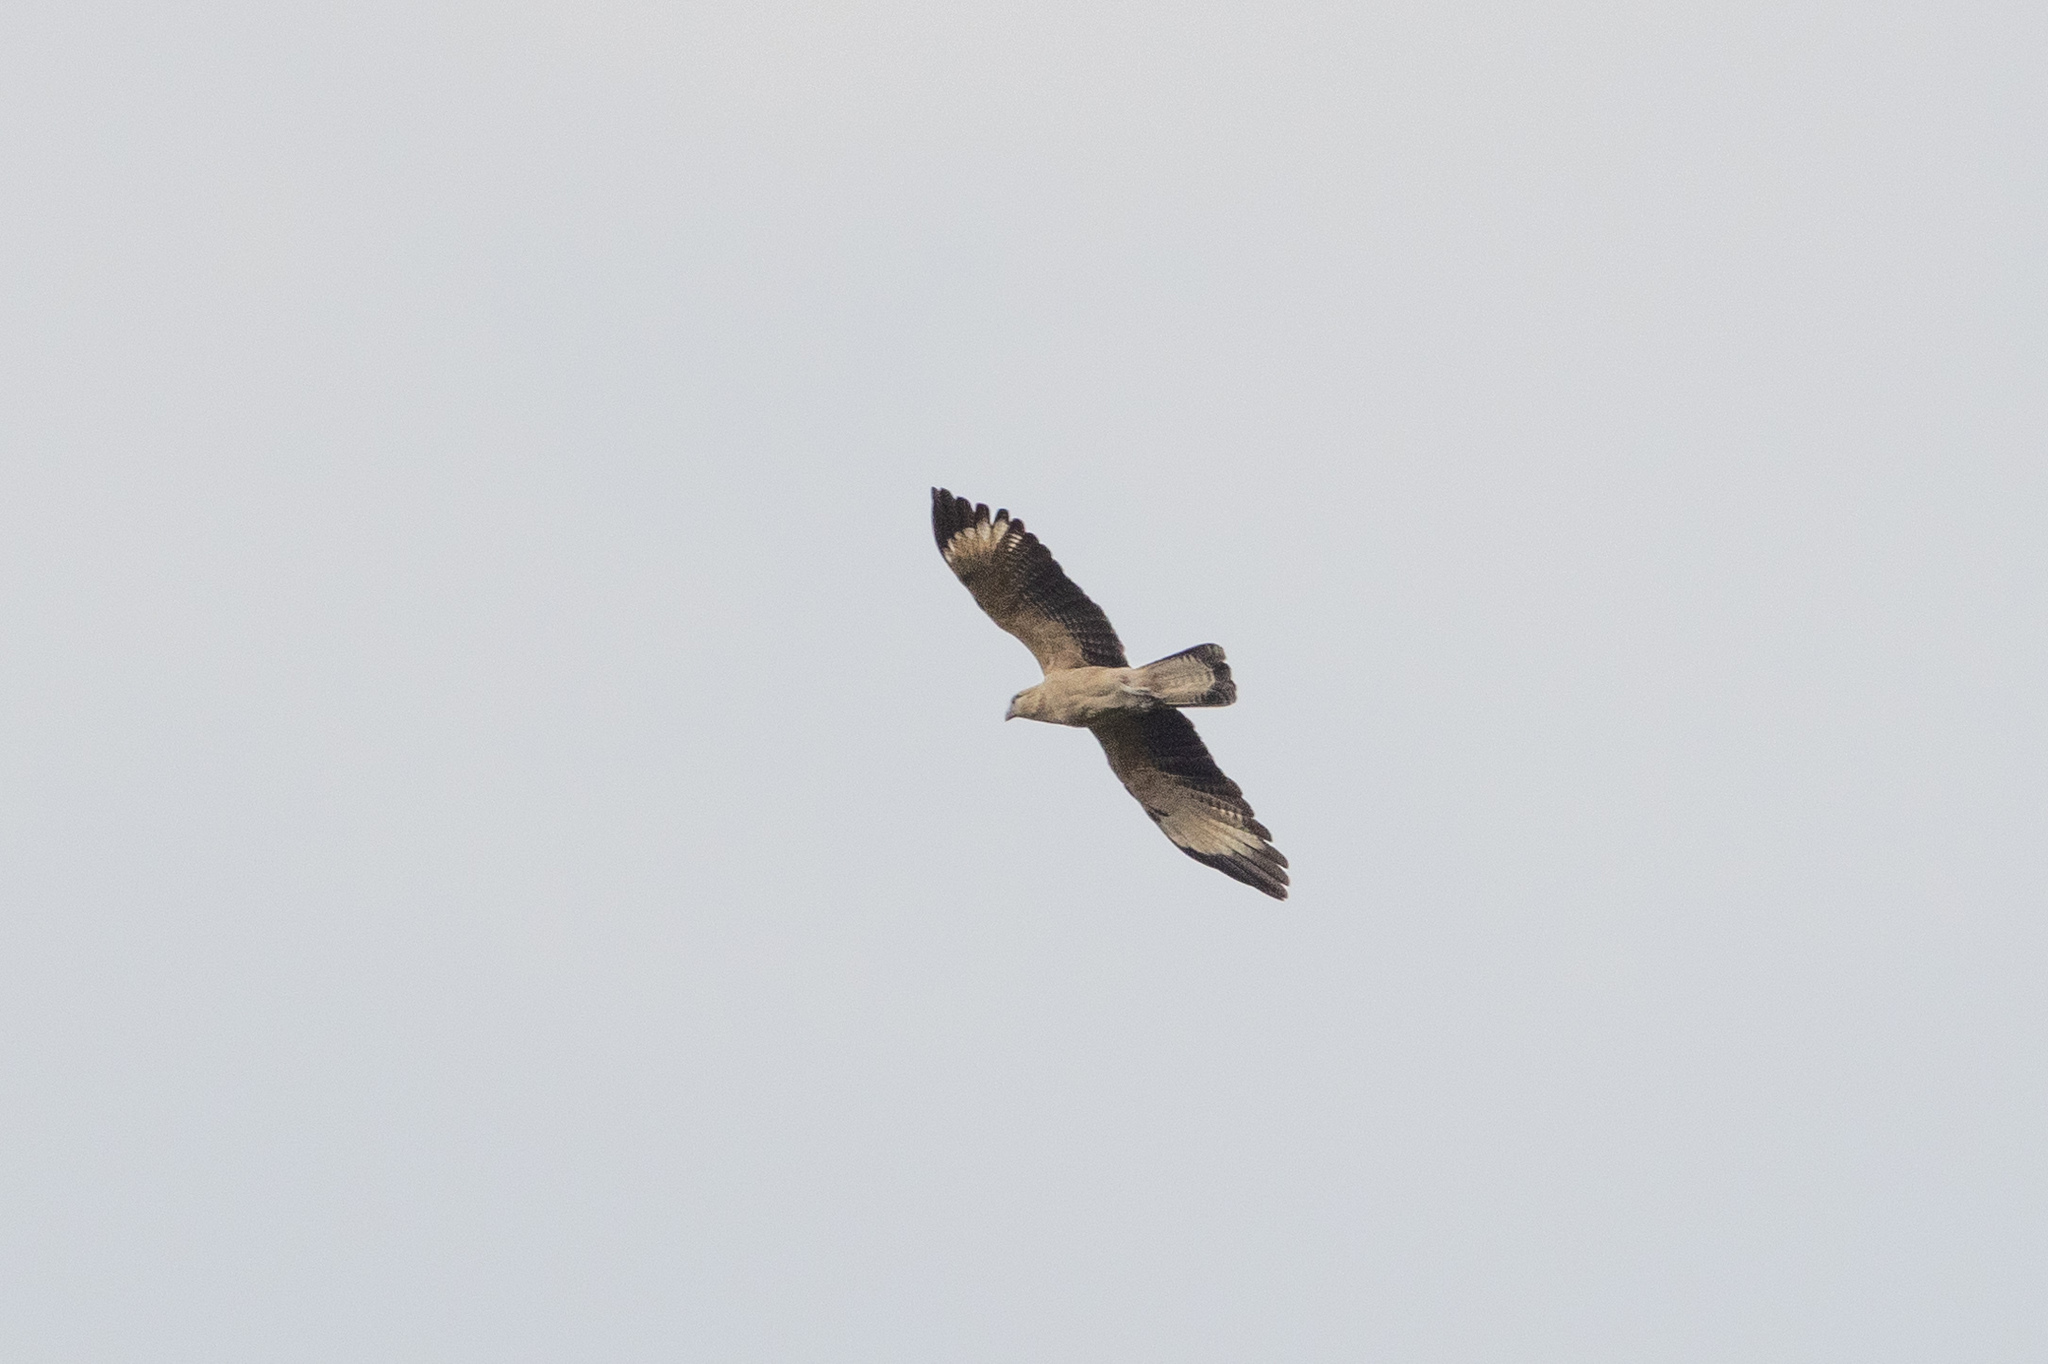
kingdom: Animalia
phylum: Chordata
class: Aves
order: Falconiformes
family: Falconidae
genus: Daptrius
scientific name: Daptrius
